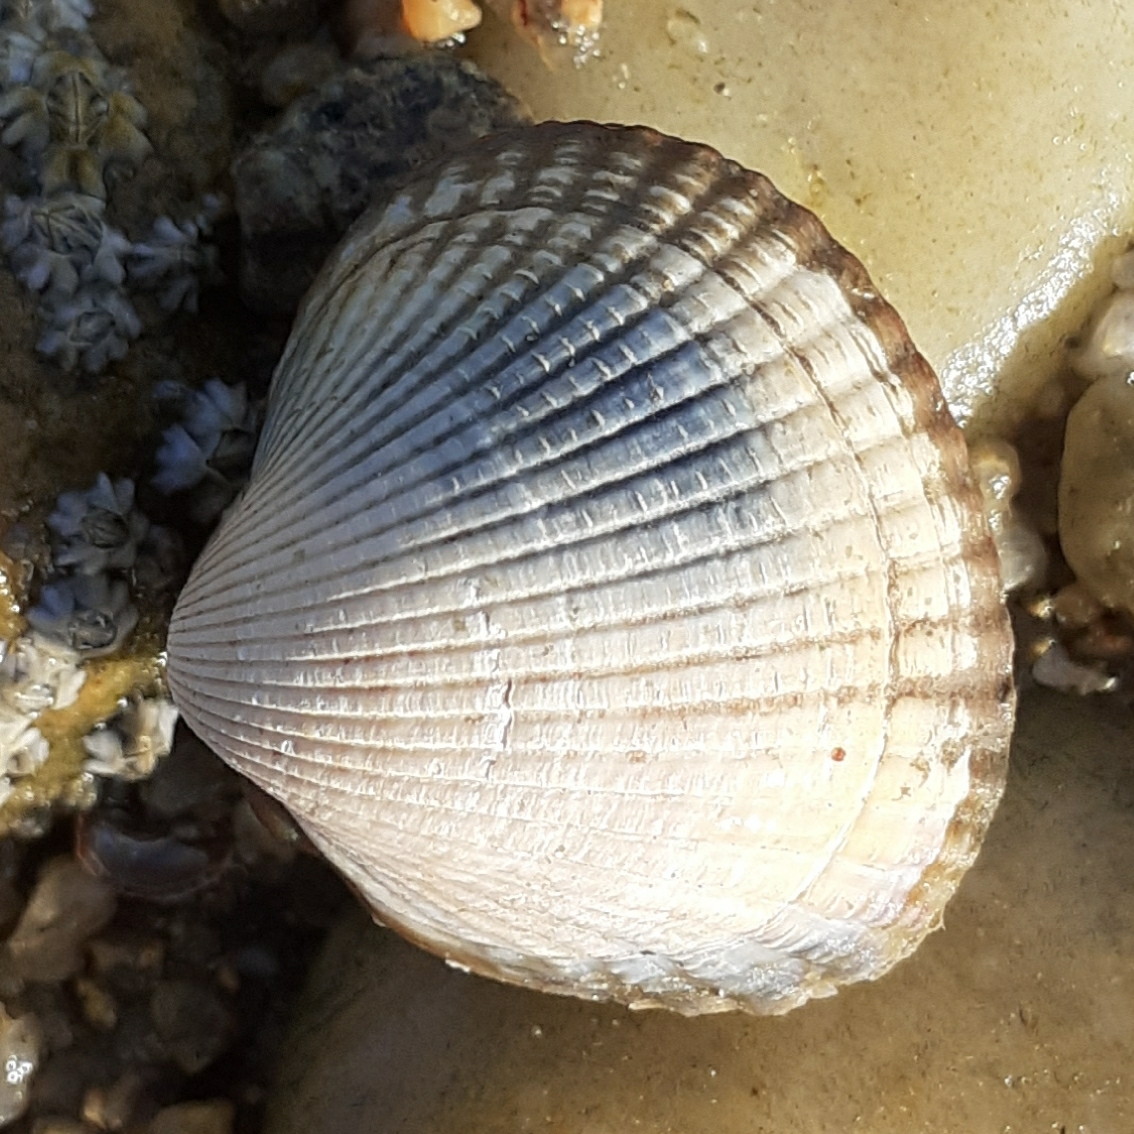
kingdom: Animalia
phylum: Mollusca
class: Bivalvia
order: Cardiida
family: Cardiidae
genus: Cerastoderma
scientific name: Cerastoderma edule
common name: Common cockle
